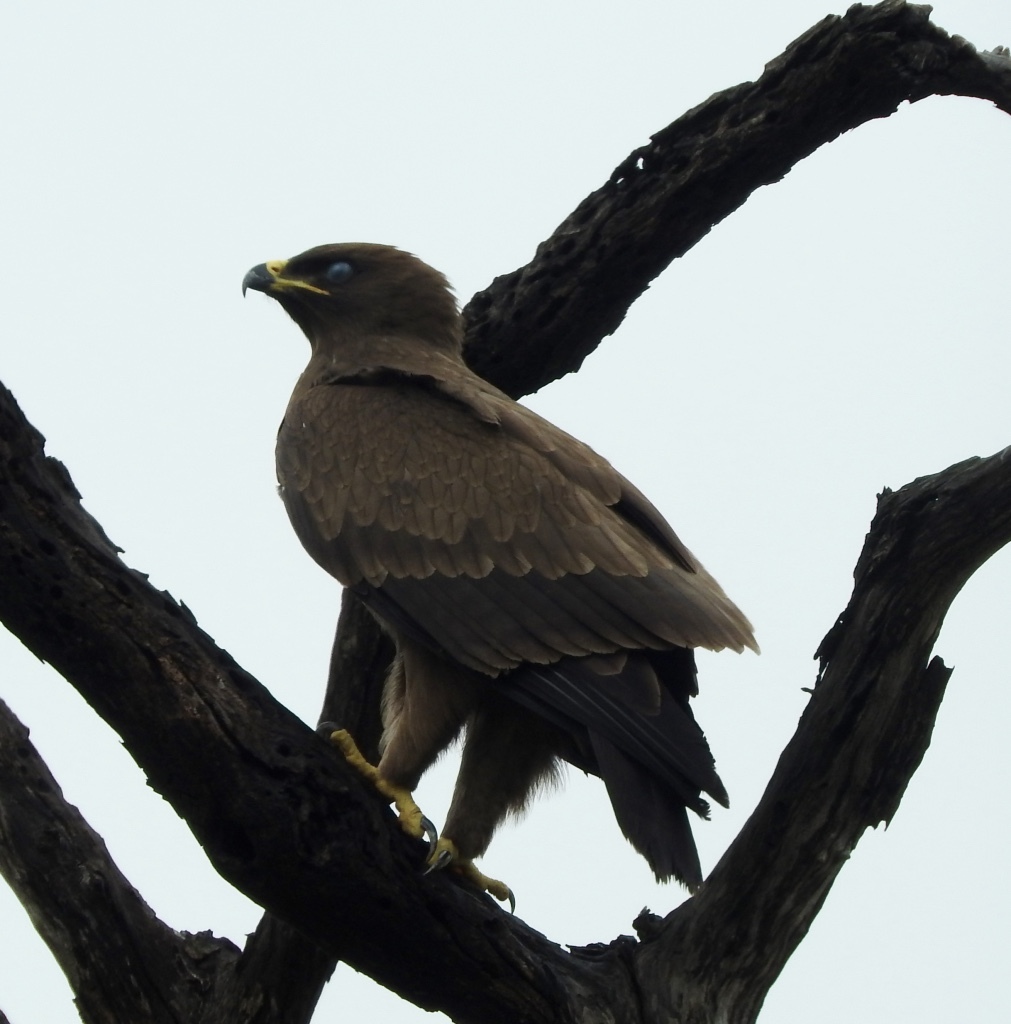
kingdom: Animalia
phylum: Chordata
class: Aves
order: Accipitriformes
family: Accipitridae
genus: Hieraaetus
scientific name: Hieraaetus wahlbergi
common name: Wahlberg's eagle
